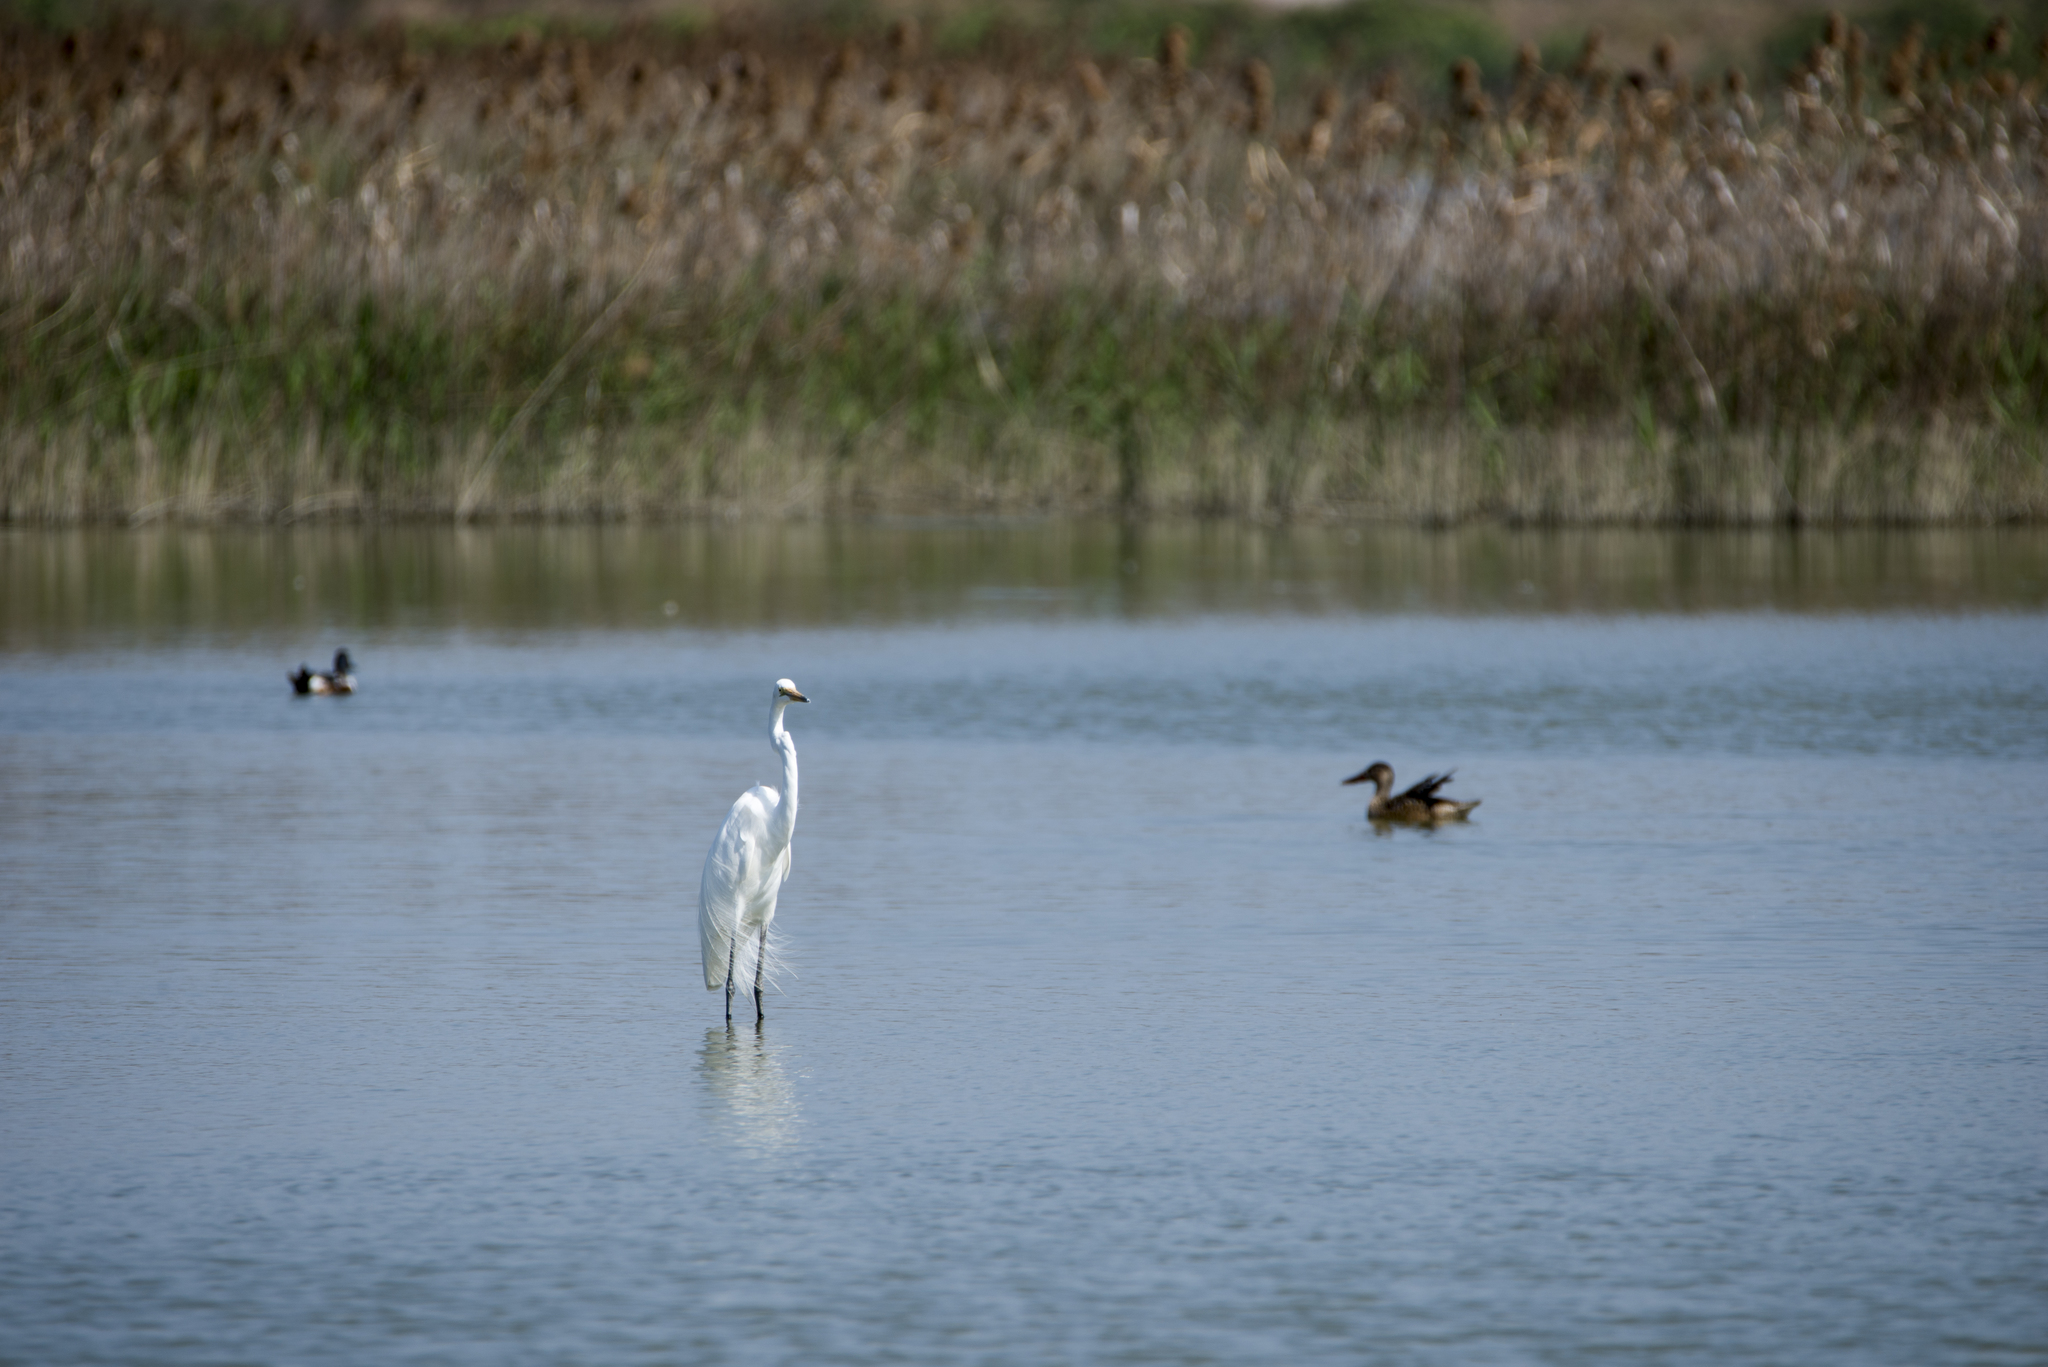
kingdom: Animalia
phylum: Chordata
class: Aves
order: Pelecaniformes
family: Ardeidae
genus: Ardea
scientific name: Ardea alba
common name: Great egret
